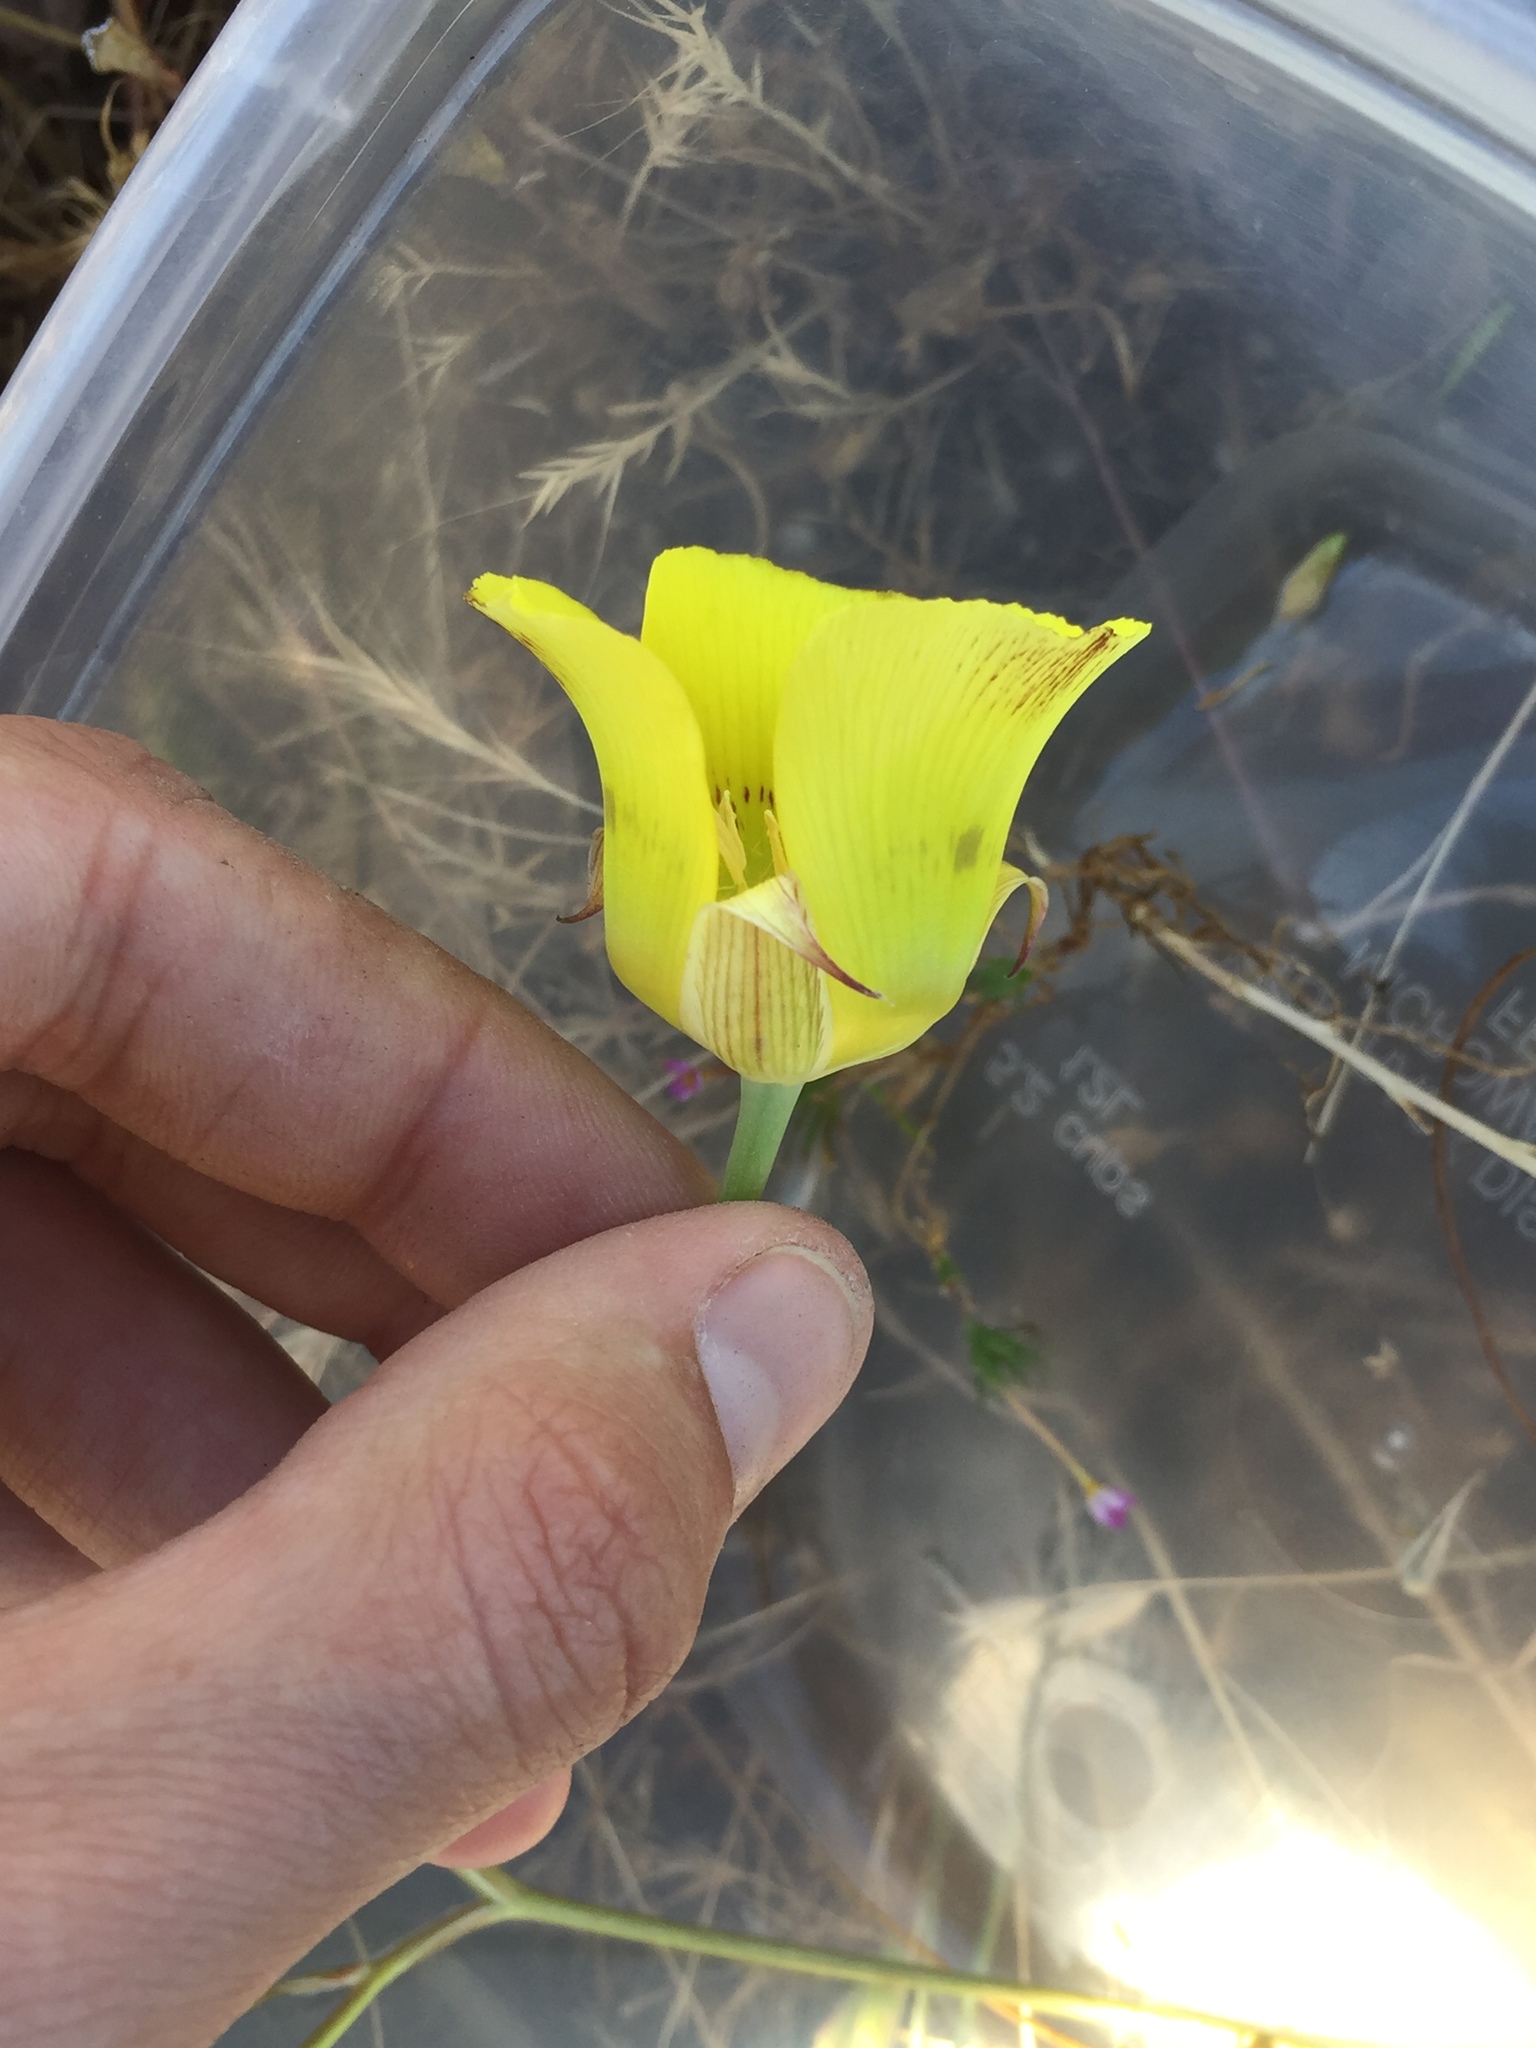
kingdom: Plantae
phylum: Tracheophyta
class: Liliopsida
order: Liliales
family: Liliaceae
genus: Calochortus
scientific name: Calochortus luteus
